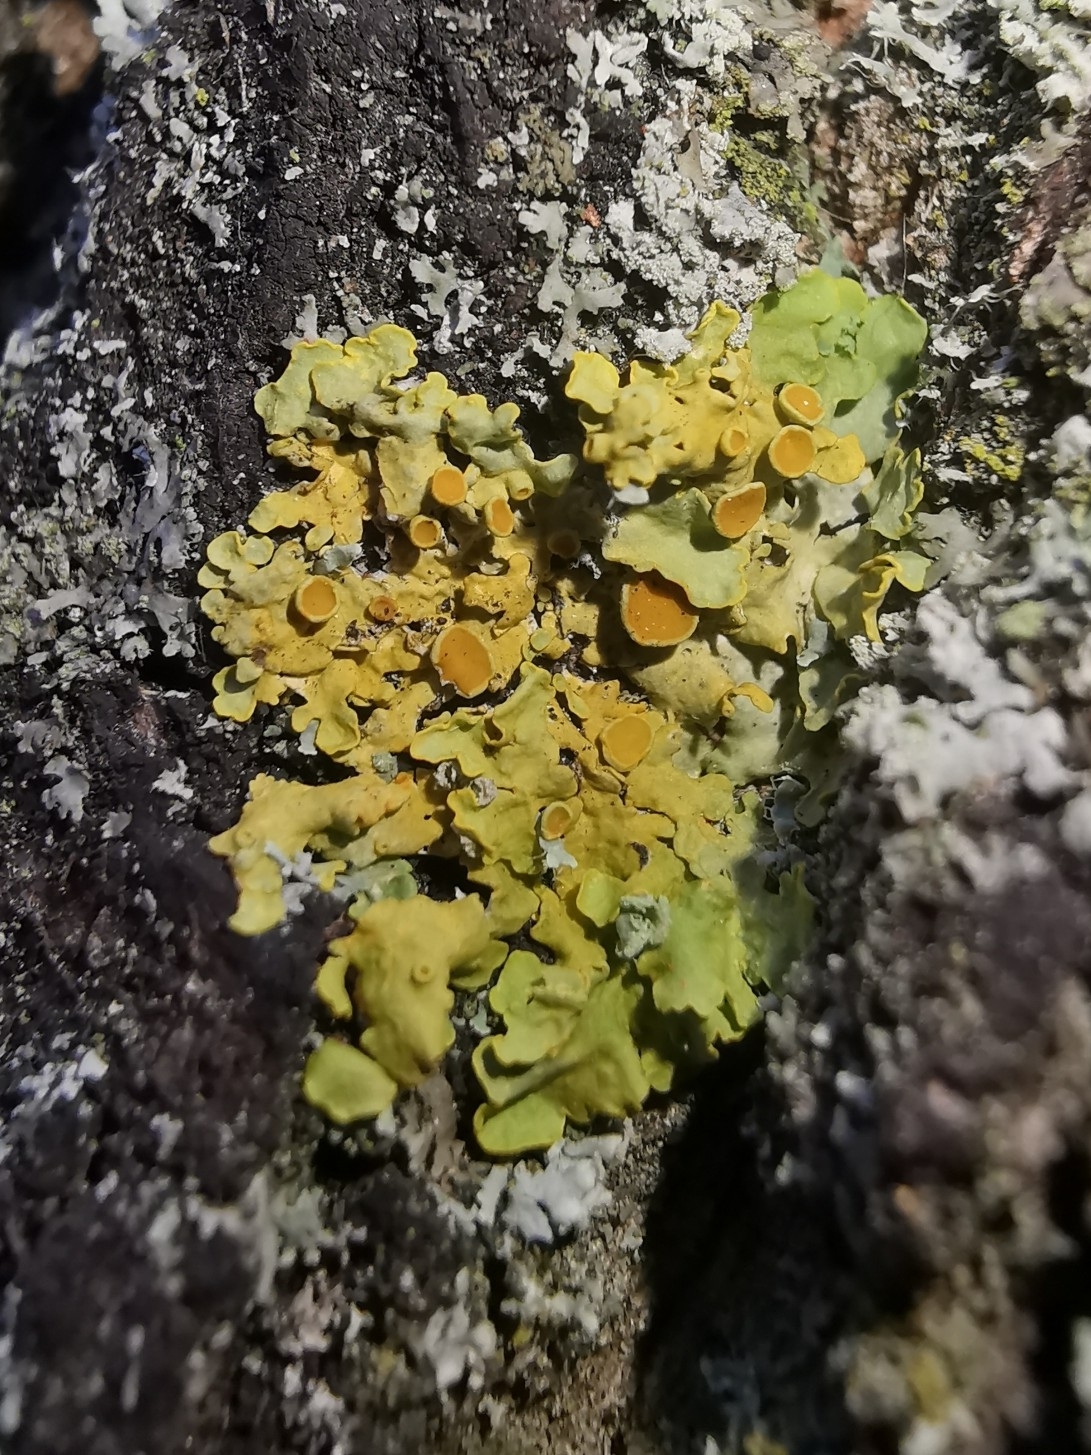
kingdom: Fungi
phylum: Ascomycota
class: Lecanoromycetes
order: Teloschistales
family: Teloschistaceae
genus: Xanthoria
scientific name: Xanthoria parietina
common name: Common orange lichen
